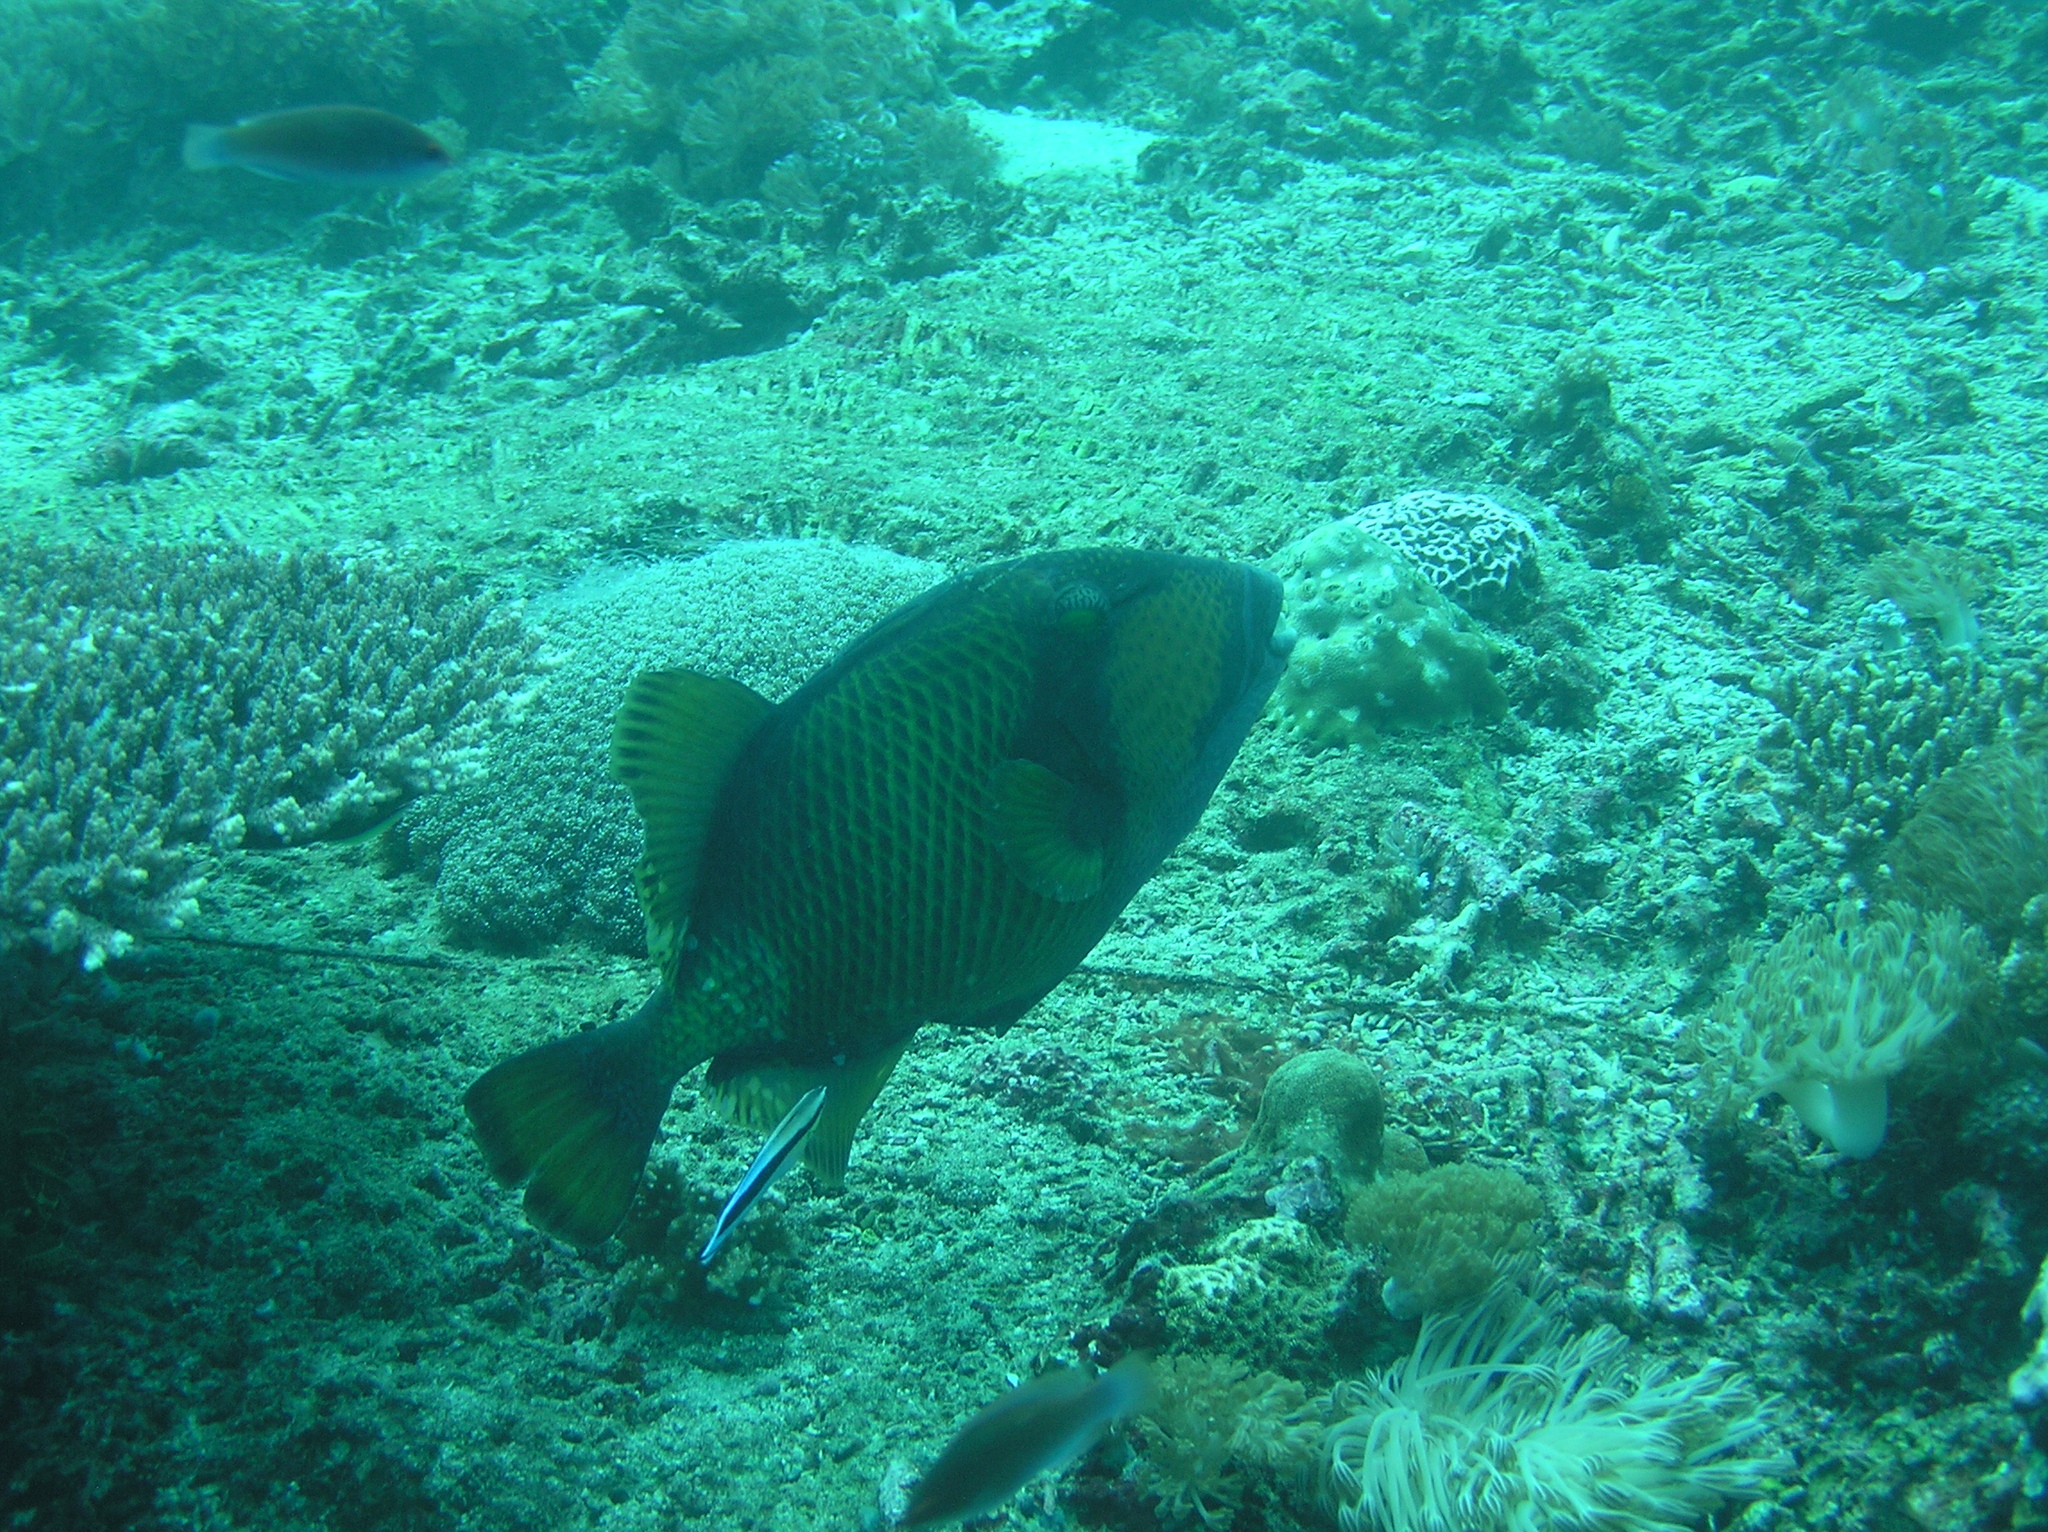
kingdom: Animalia
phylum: Chordata
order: Tetraodontiformes
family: Balistidae
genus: Balistoides
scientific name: Balistoides viridescens
